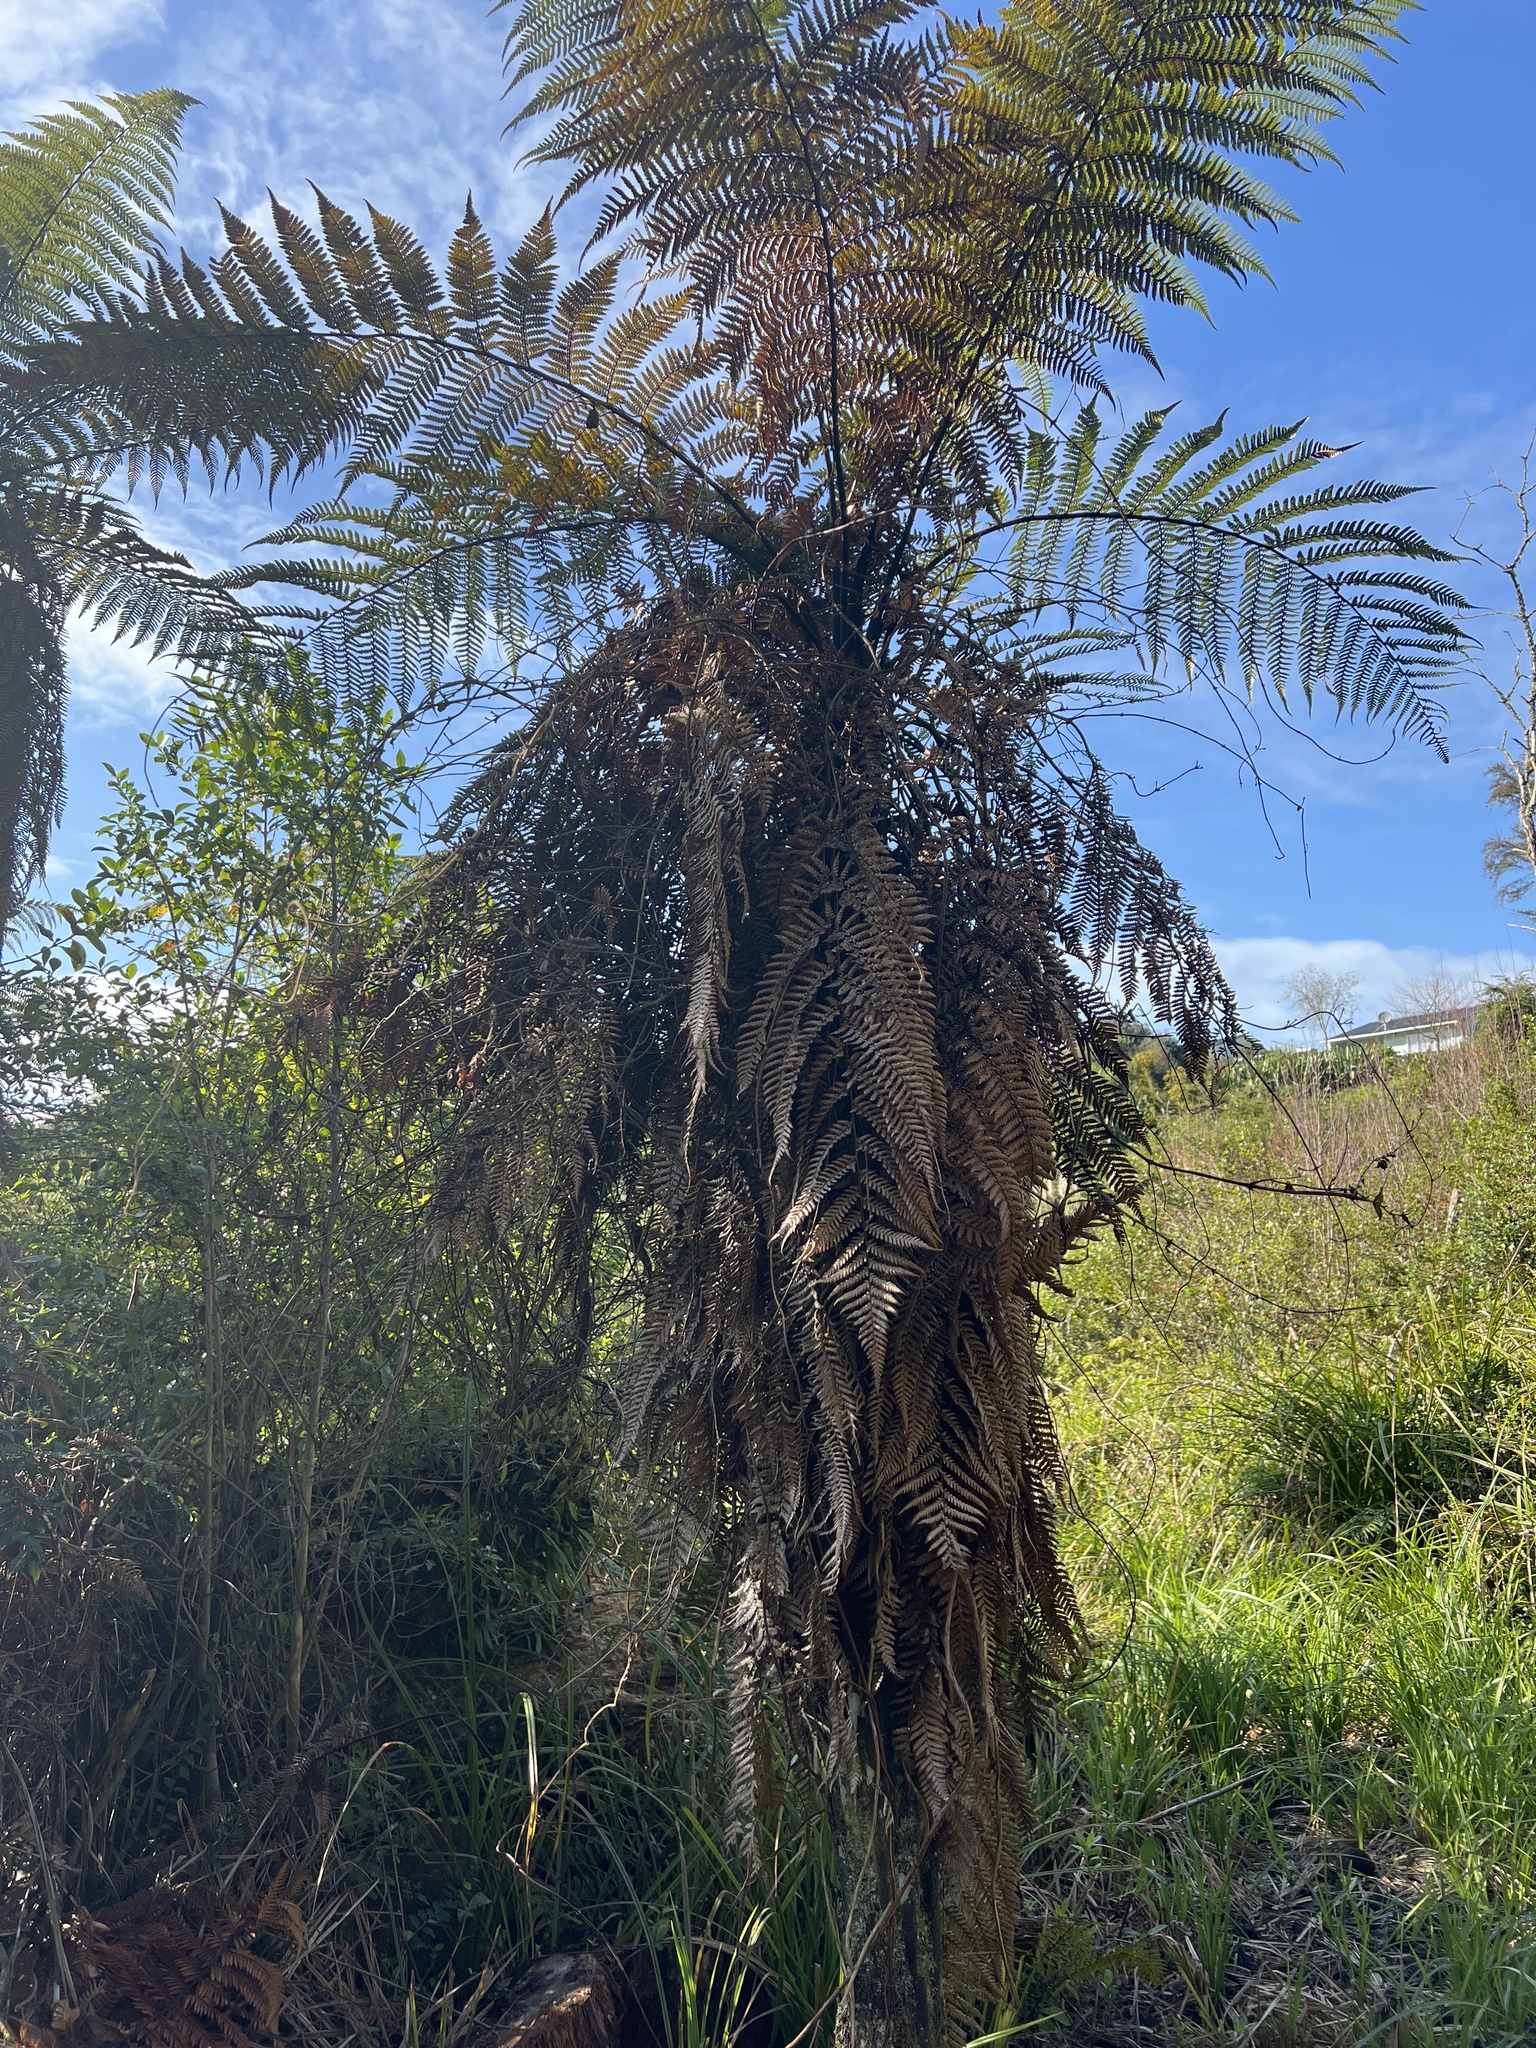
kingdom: Plantae
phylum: Tracheophyta
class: Polypodiopsida
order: Cyatheales
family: Dicksoniaceae
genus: Dicksonia
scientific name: Dicksonia squarrosa
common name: Hard treefern
